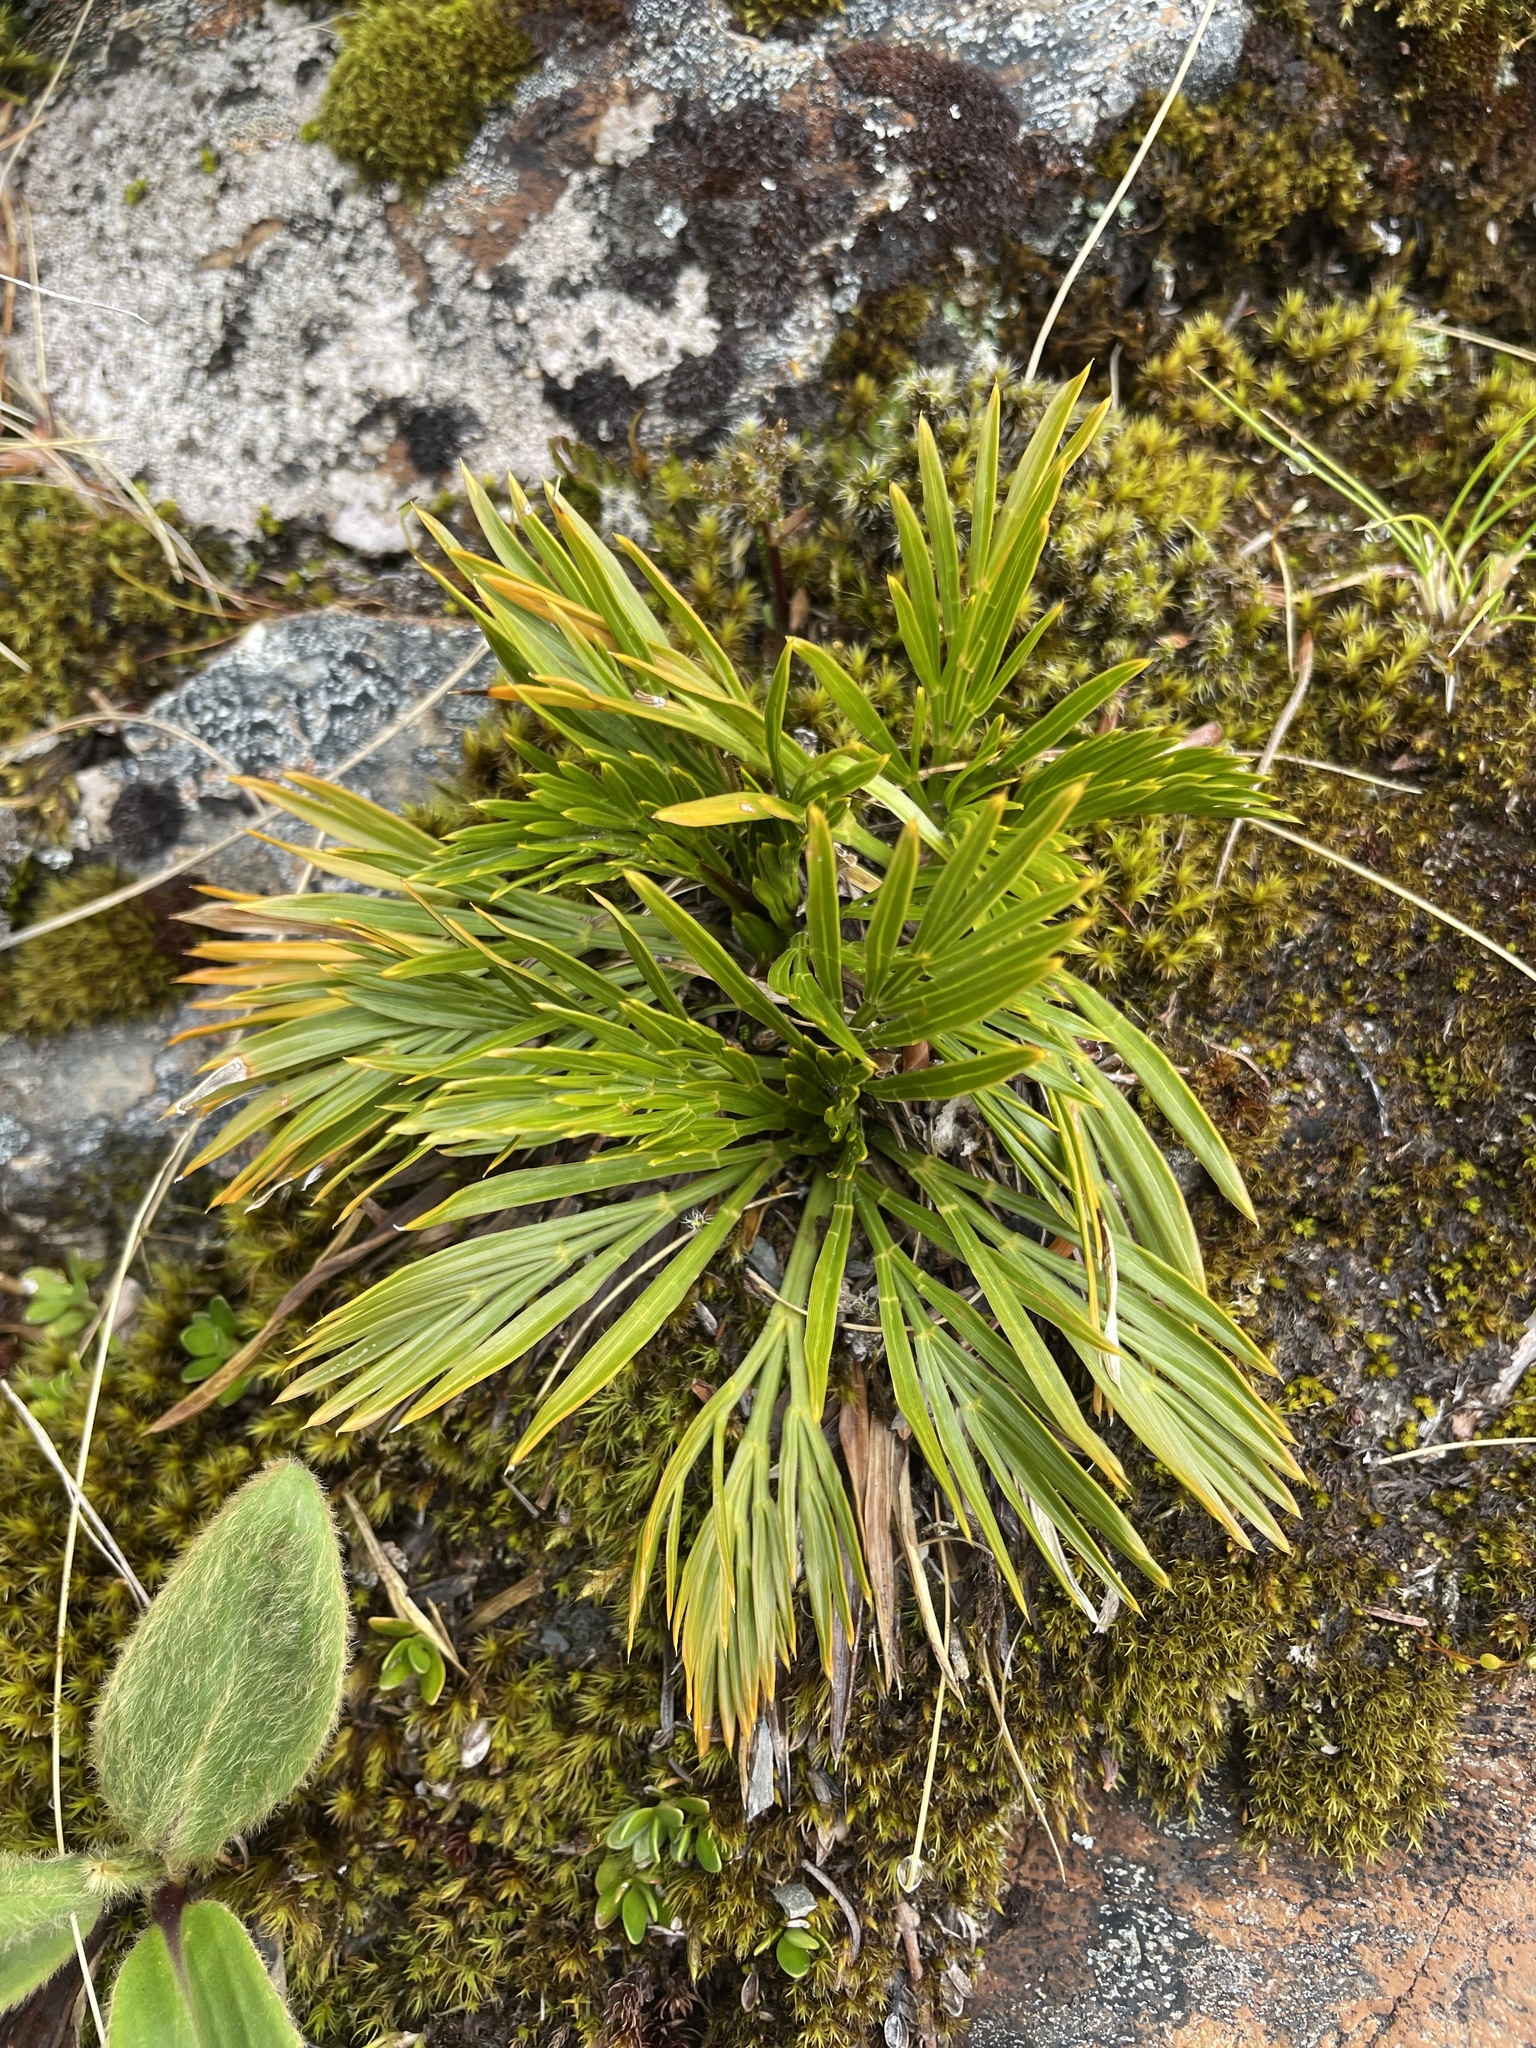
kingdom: Plantae
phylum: Tracheophyta
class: Magnoliopsida
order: Apiales
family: Apiaceae
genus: Aciphylla
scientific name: Aciphylla divisa
